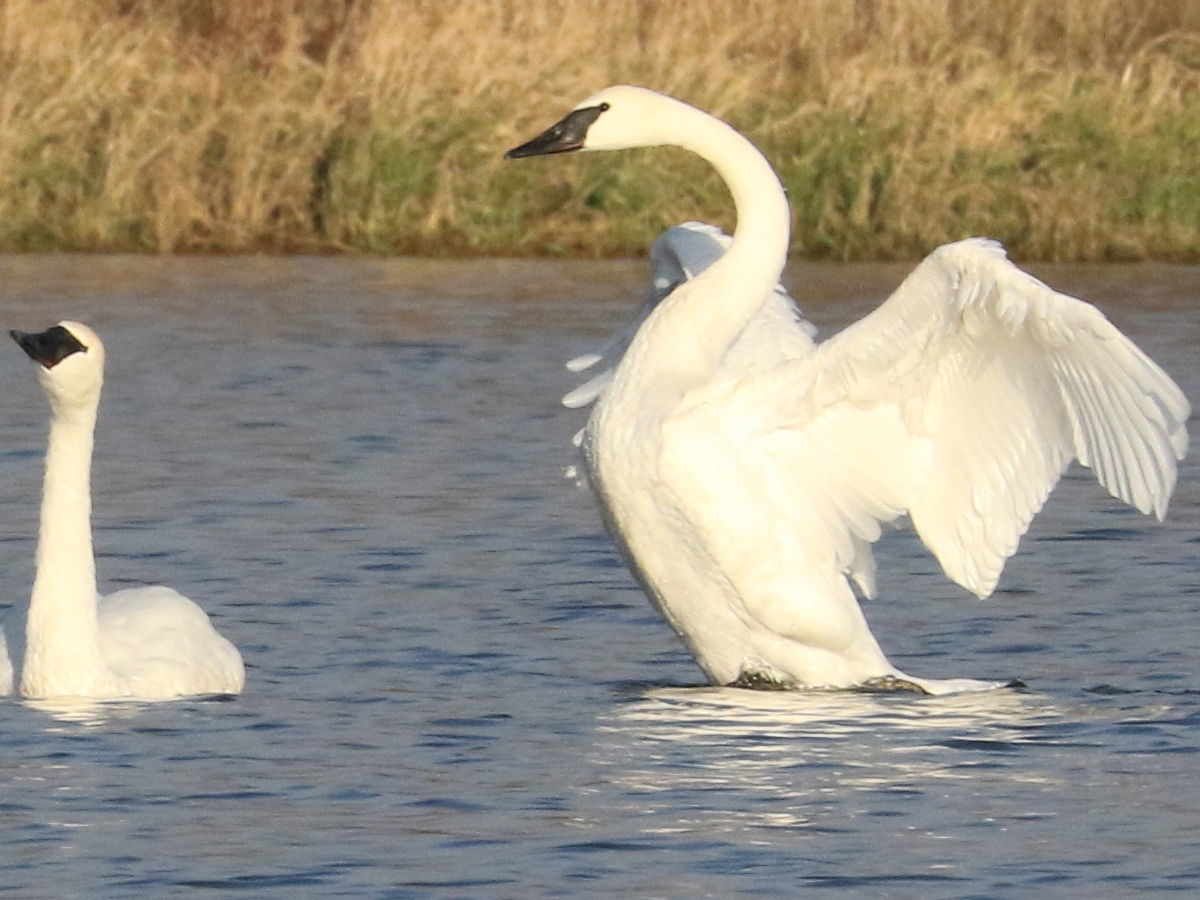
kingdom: Animalia
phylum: Chordata
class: Aves
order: Anseriformes
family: Anatidae
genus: Cygnus
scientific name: Cygnus buccinator
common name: Trumpeter swan
